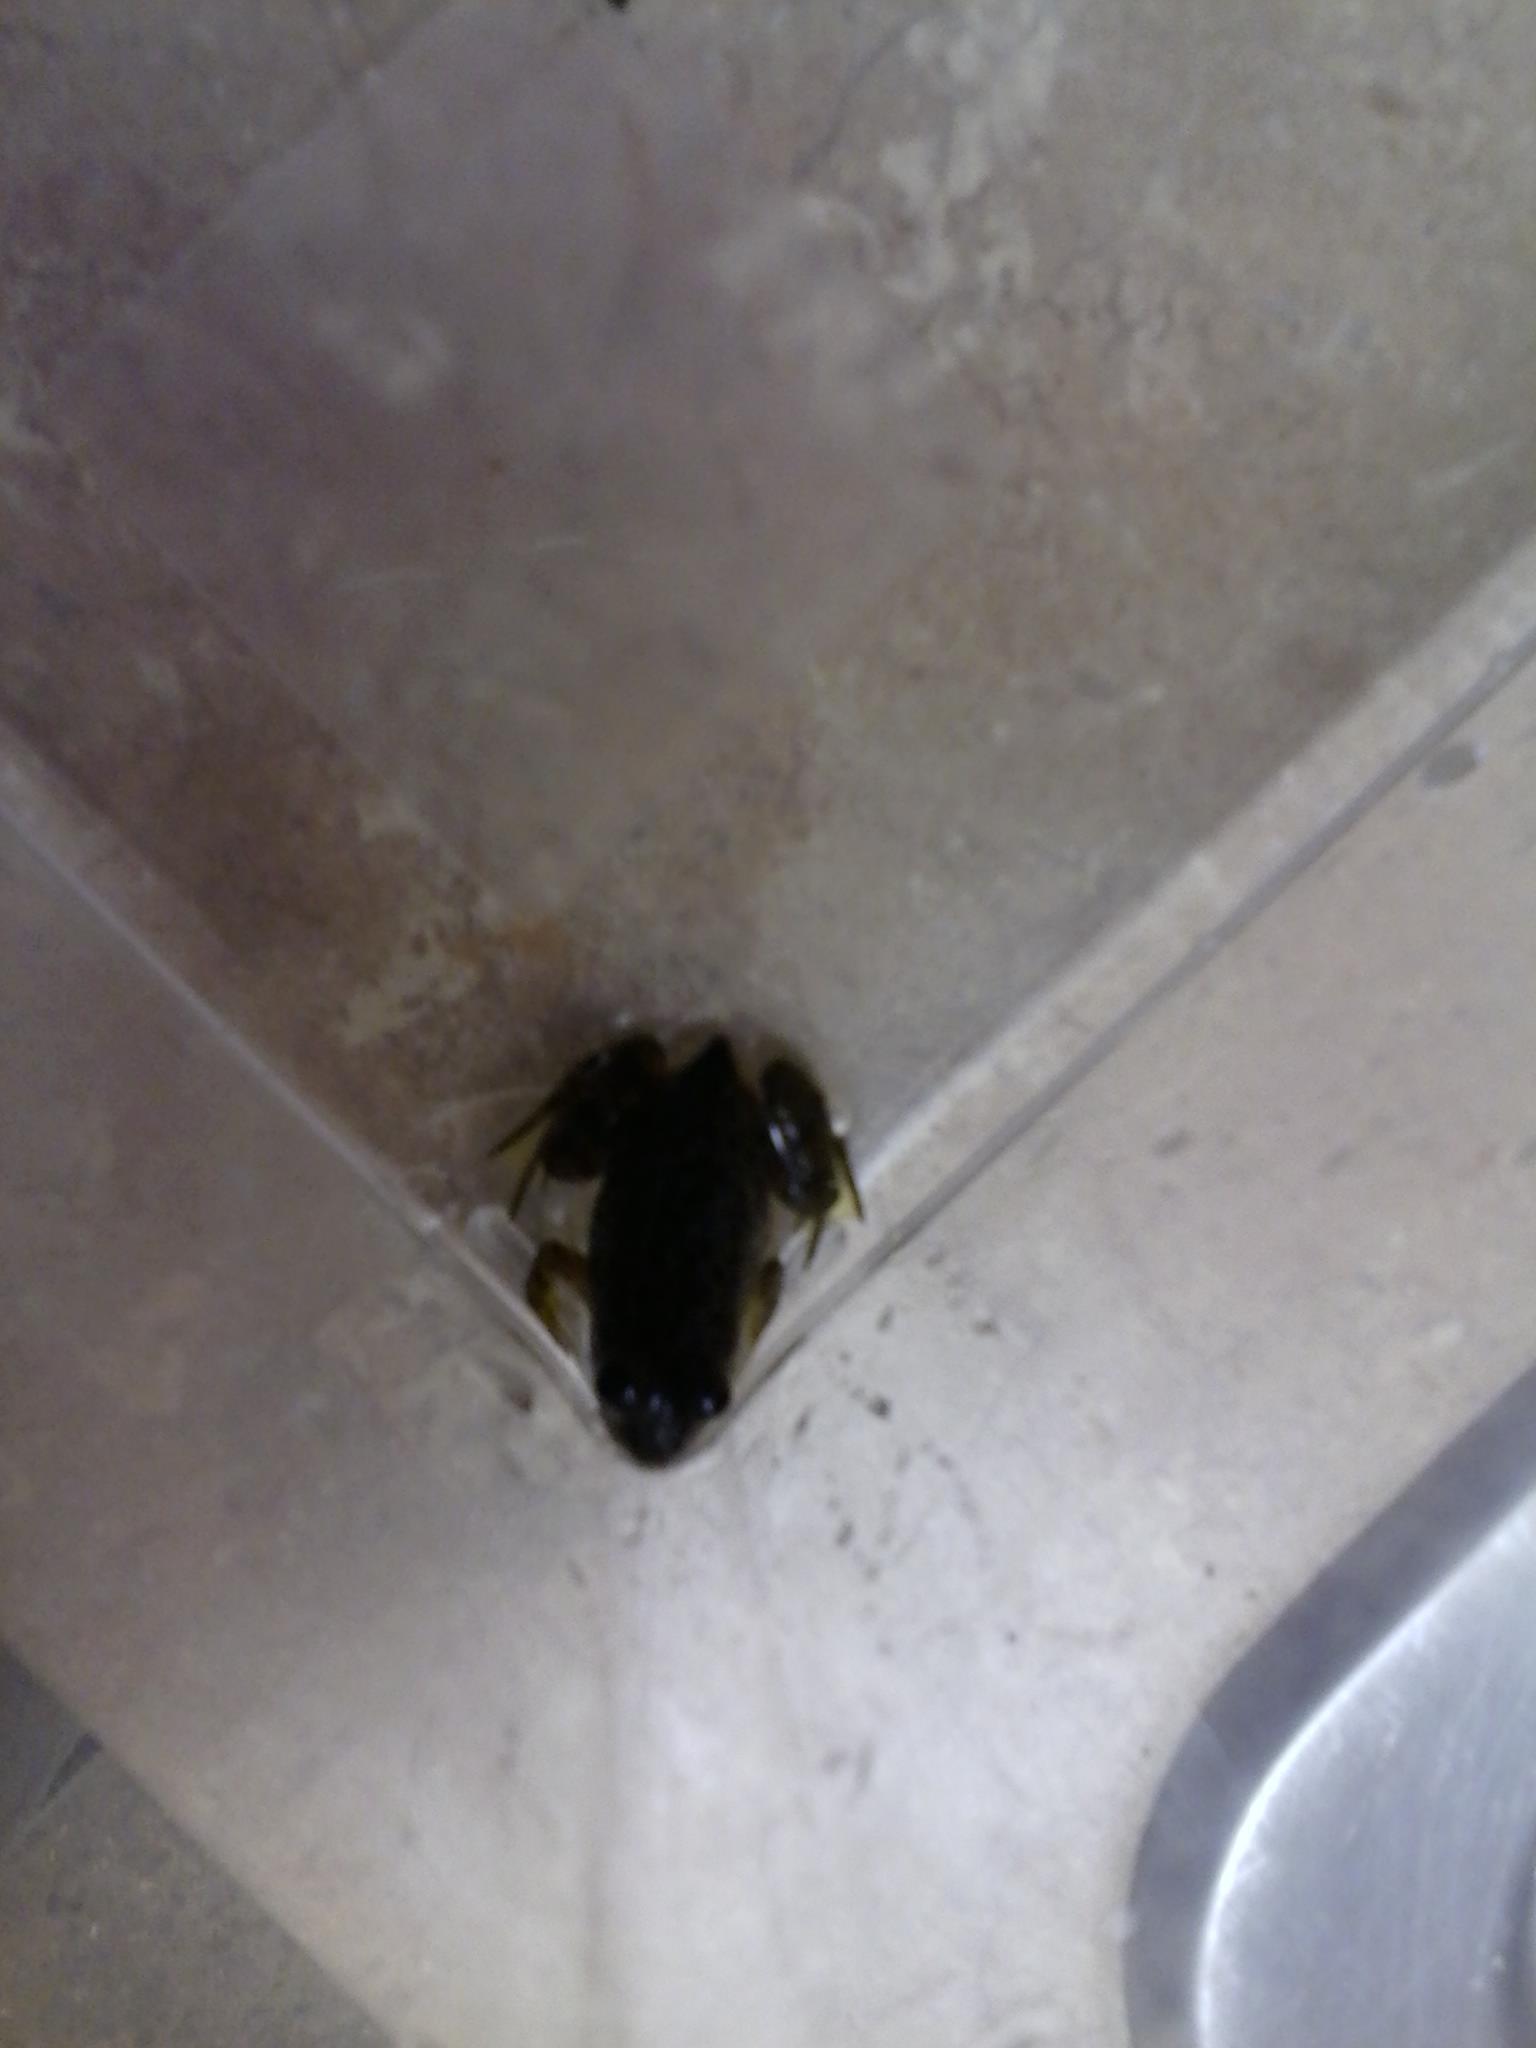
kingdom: Animalia
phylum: Chordata
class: Amphibia
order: Anura
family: Ranidae
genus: Lithobates
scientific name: Lithobates catesbeianus
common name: American bullfrog
